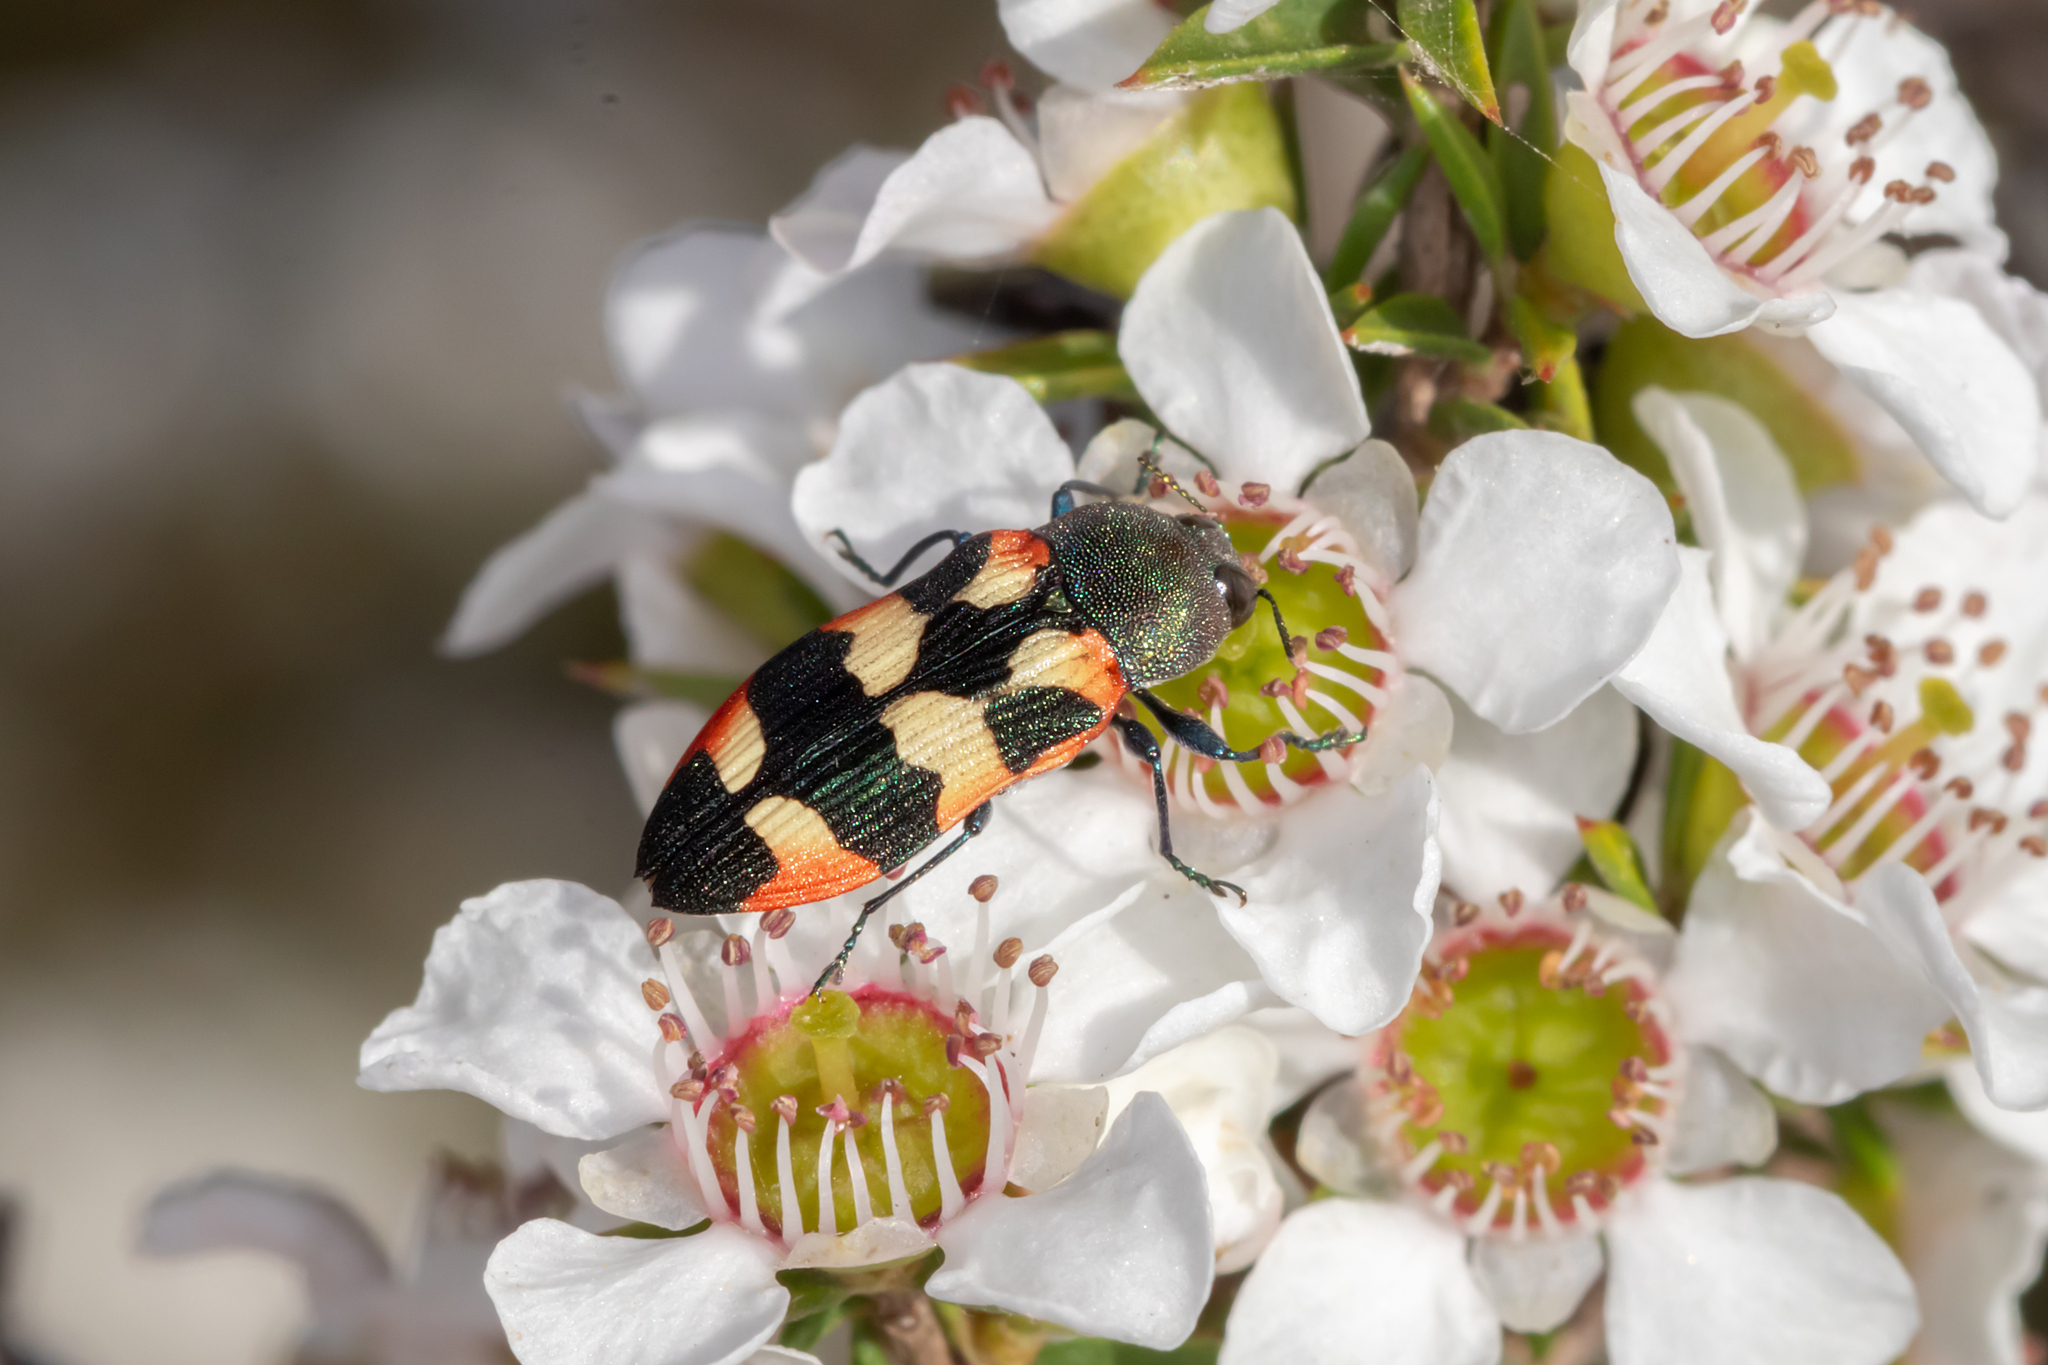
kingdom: Animalia
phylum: Arthropoda
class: Insecta
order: Coleoptera
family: Buprestidae
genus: Castiarina
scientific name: Castiarina sexplagiata
